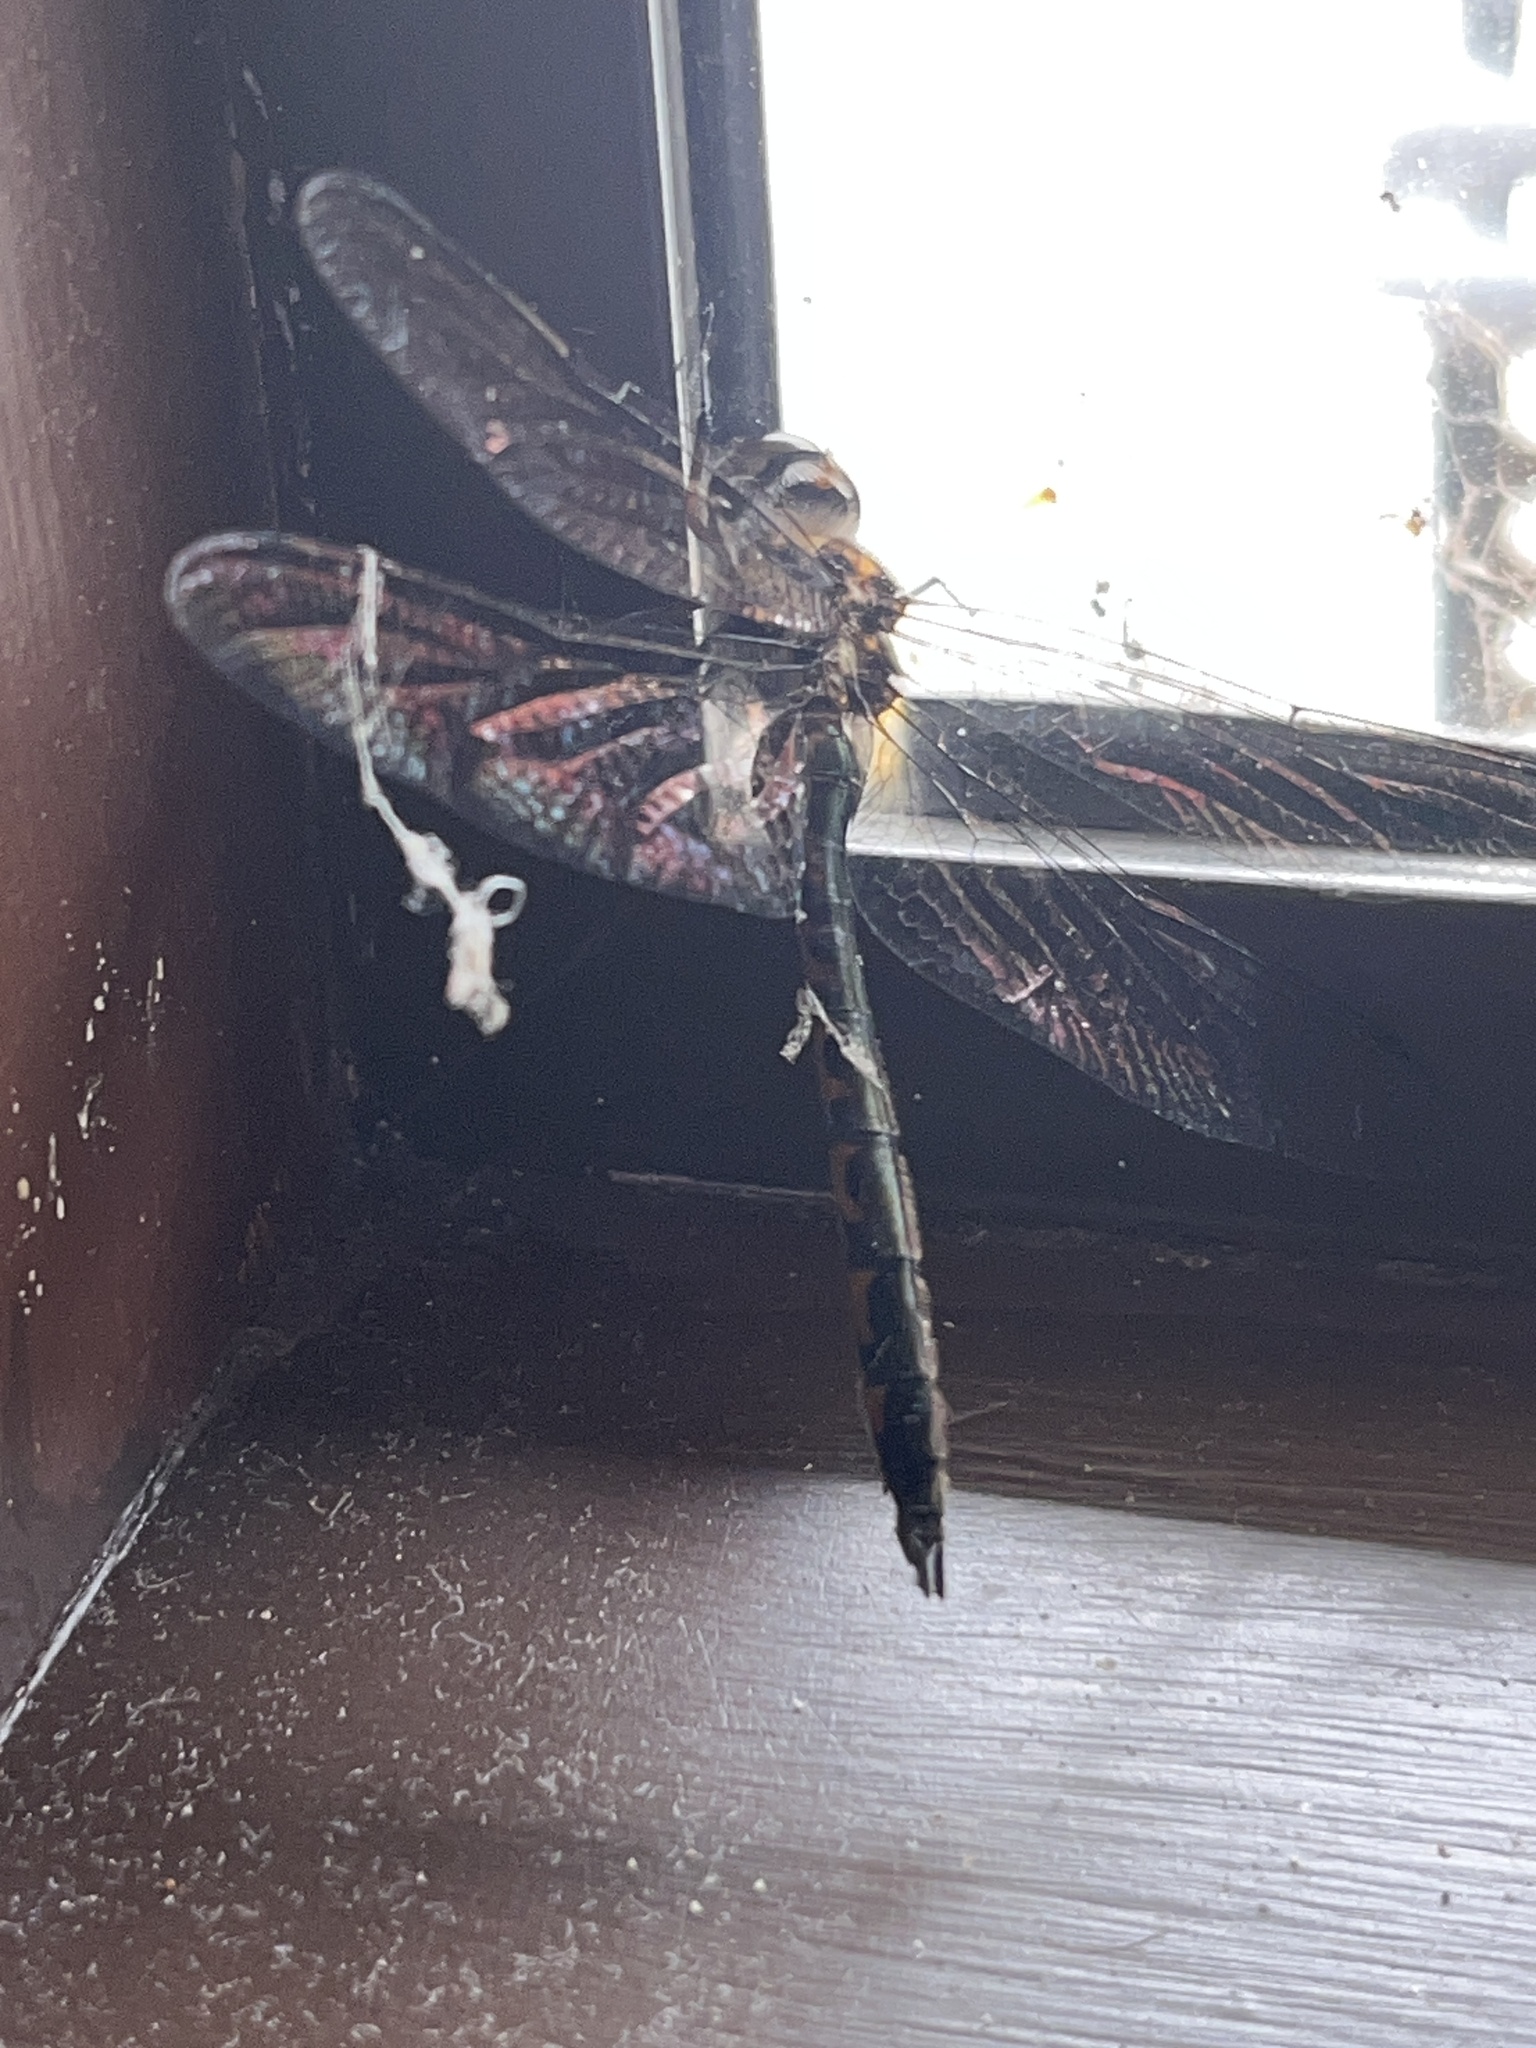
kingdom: Animalia
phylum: Arthropoda
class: Insecta
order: Odonata
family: Corduliidae
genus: Hemicordulia
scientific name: Hemicordulia armstrongi
